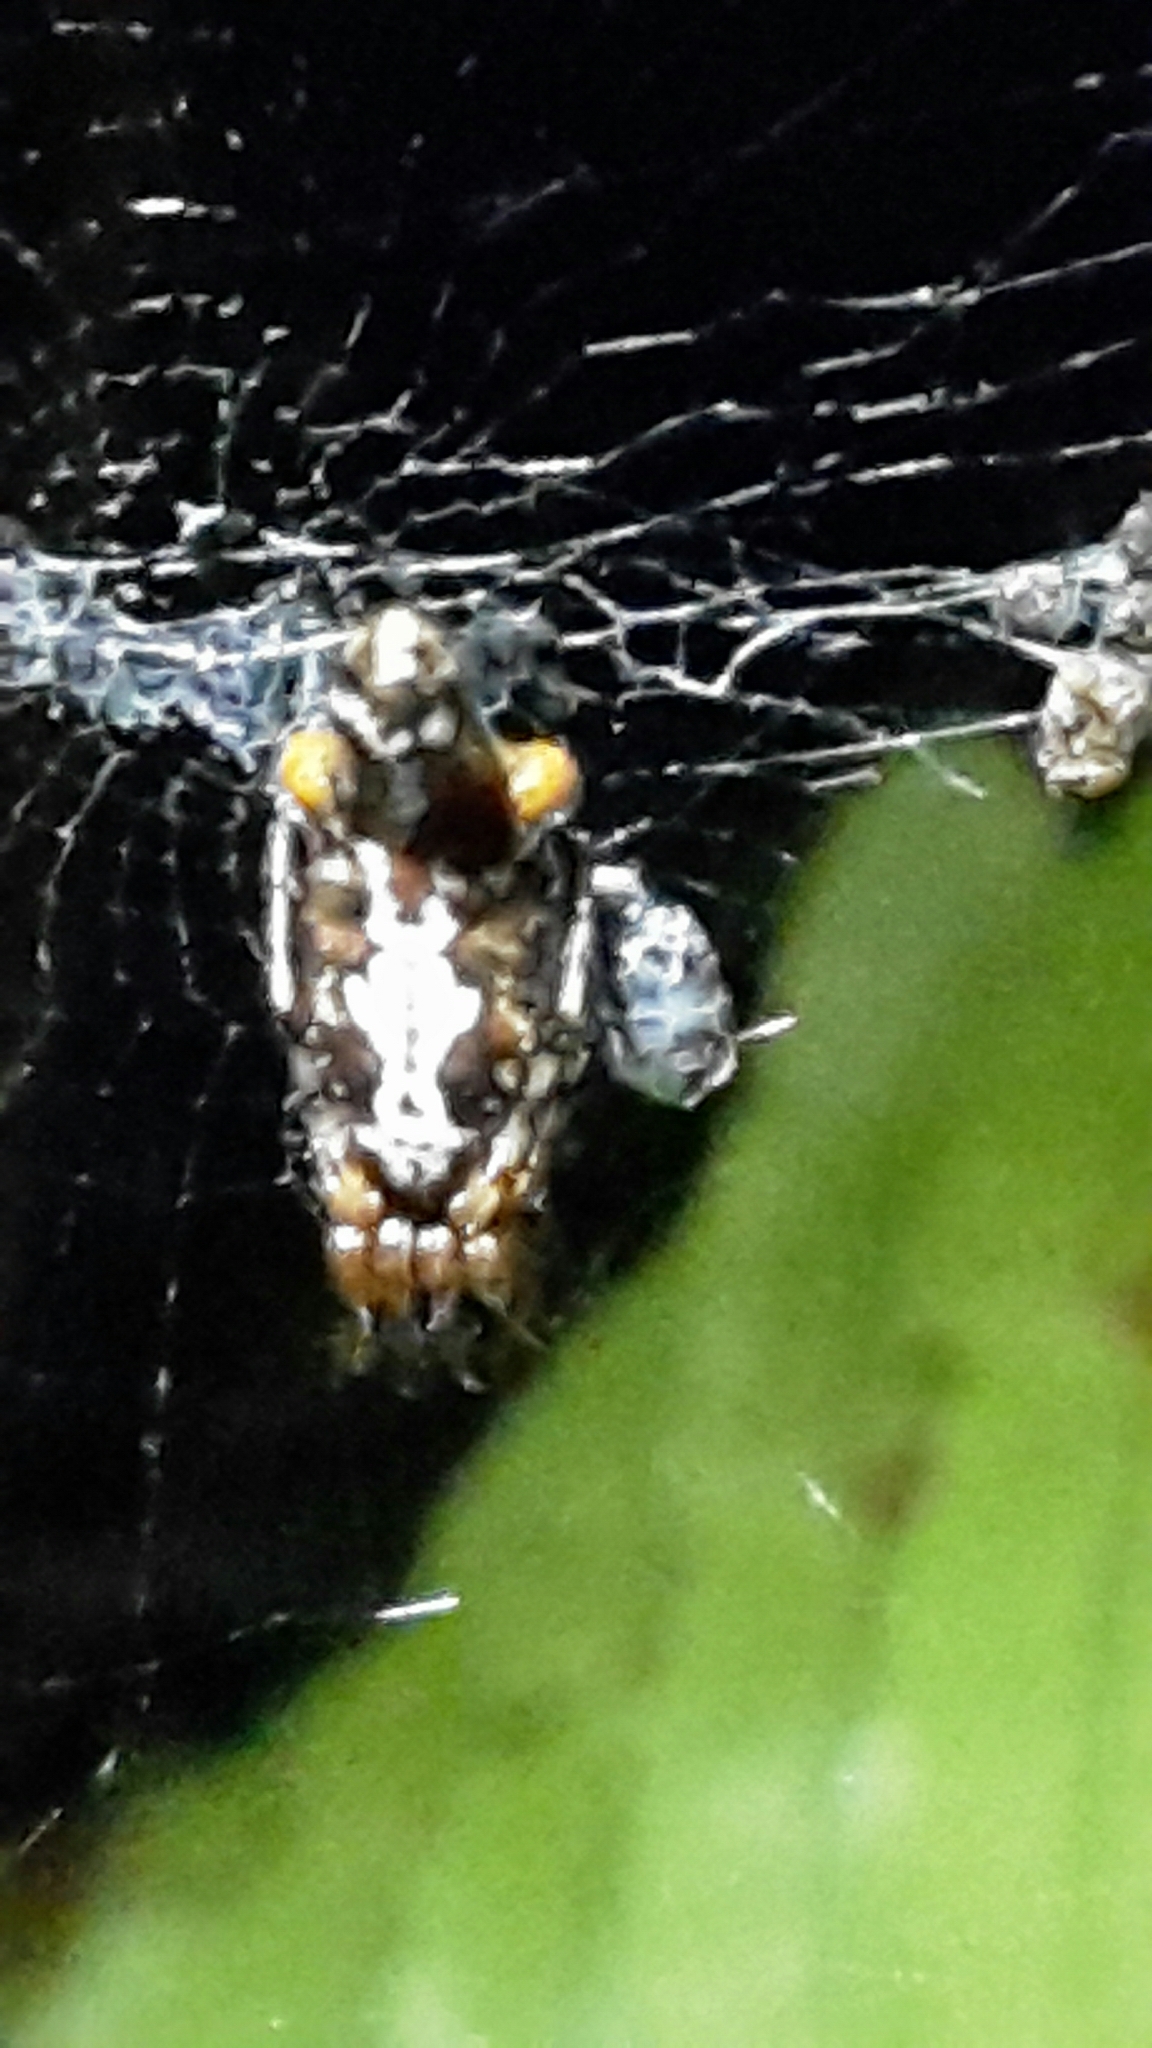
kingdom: Animalia
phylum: Arthropoda
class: Arachnida
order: Araneae
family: Araneidae
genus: Cyclosa
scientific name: Cyclosa trilobata
